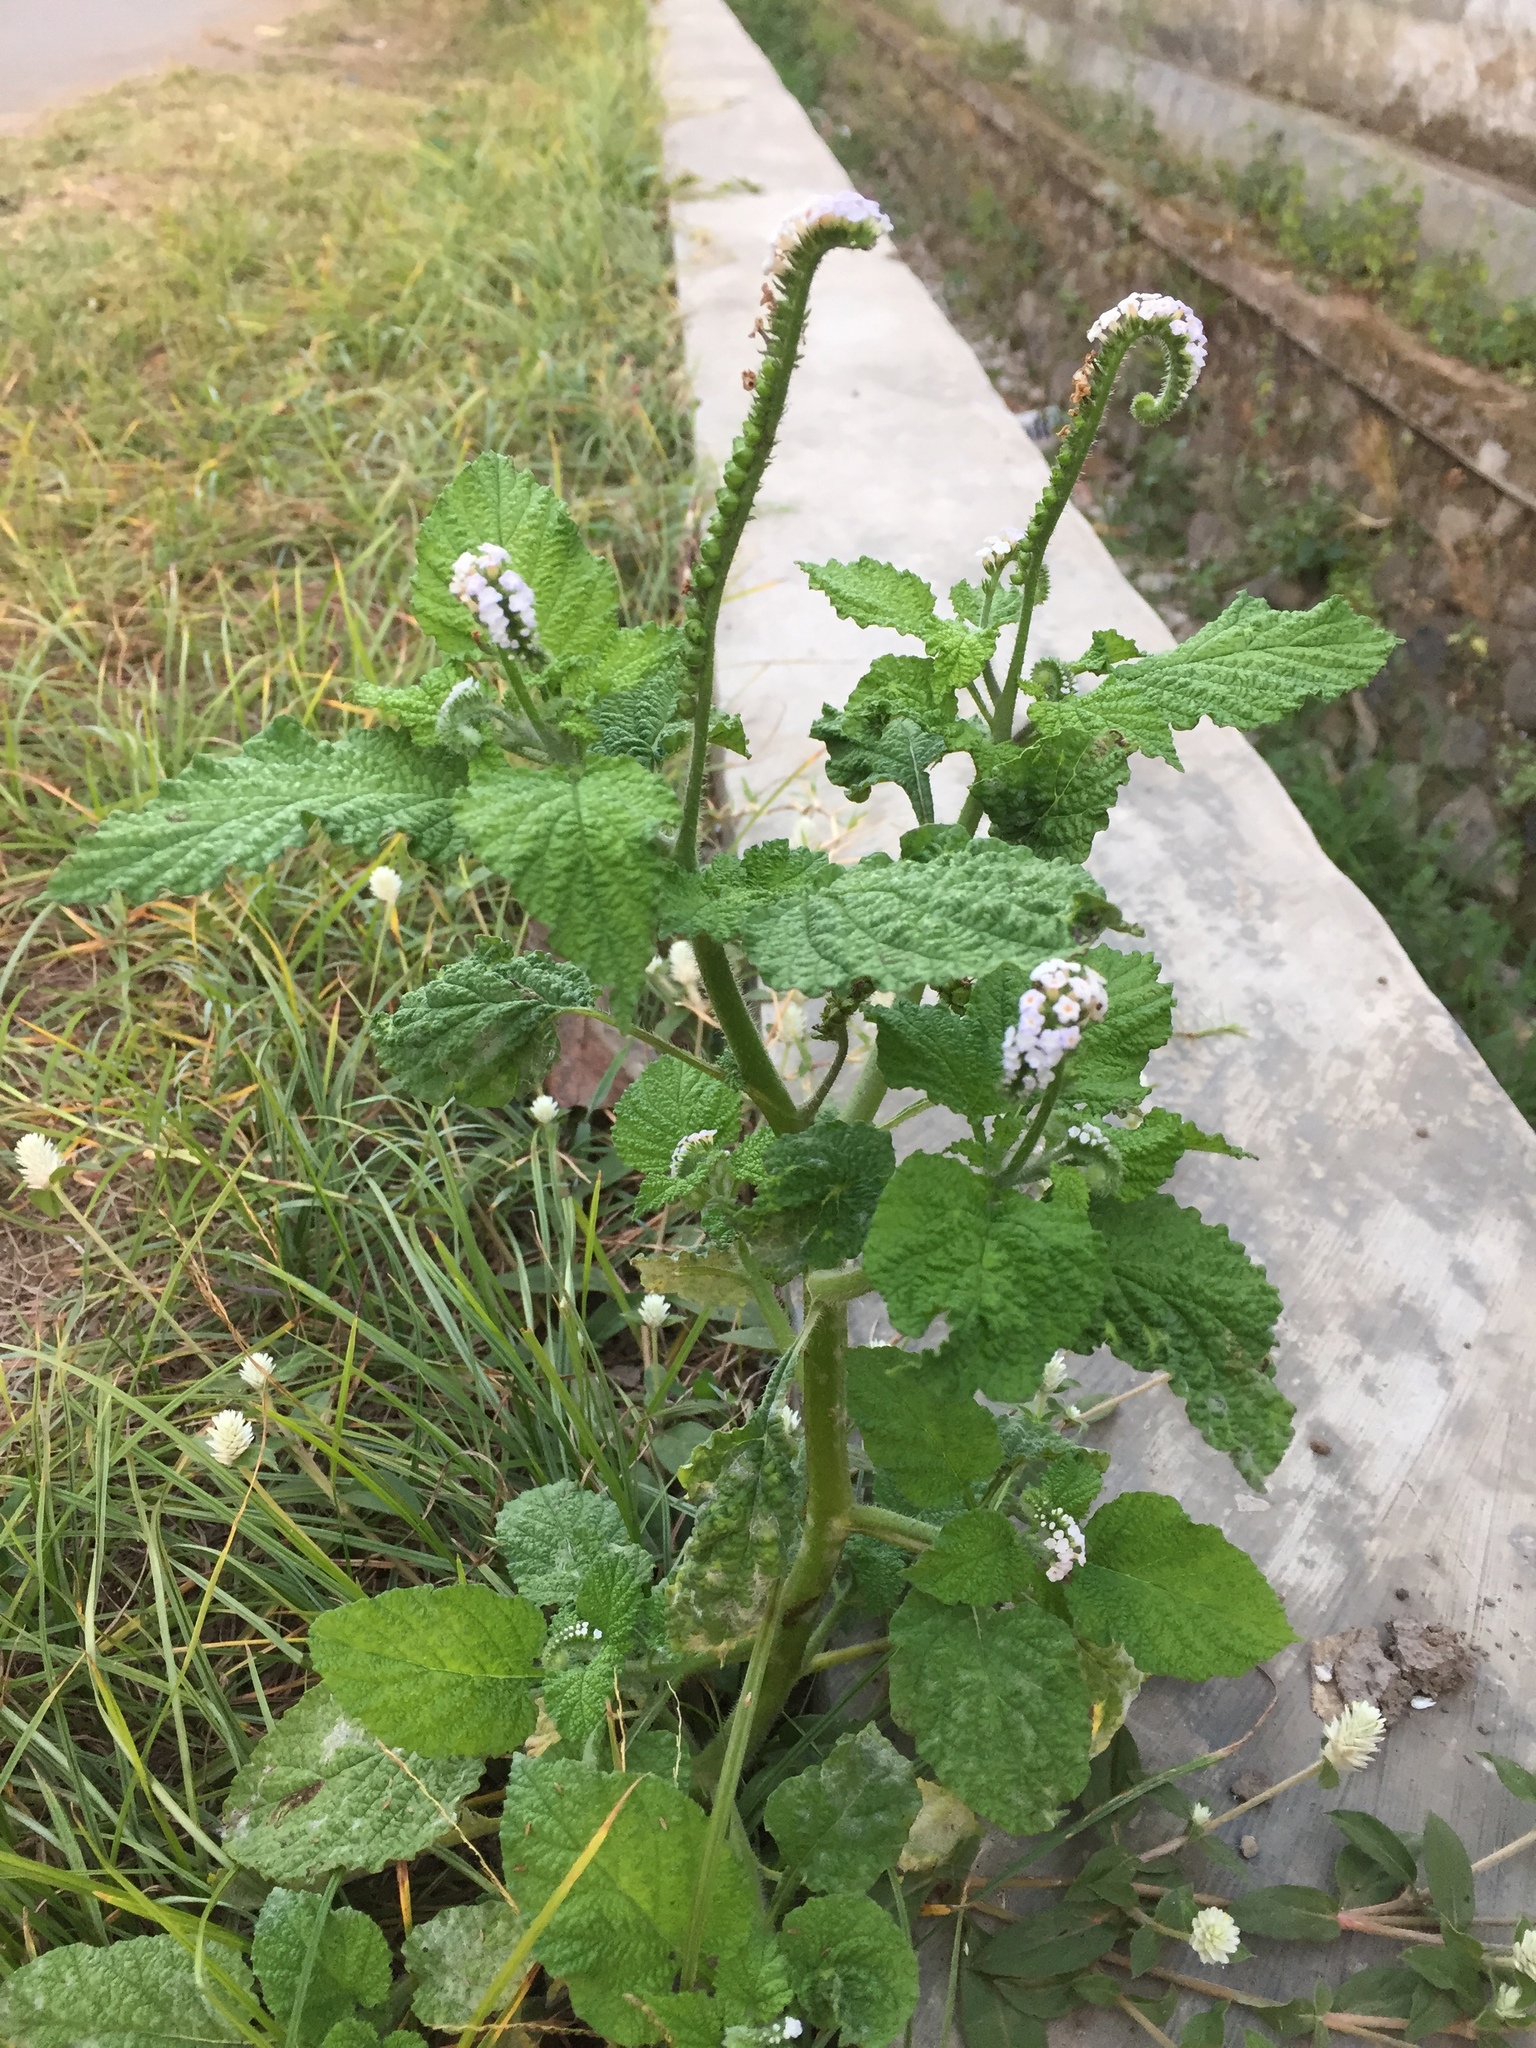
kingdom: Plantae
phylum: Tracheophyta
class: Magnoliopsida
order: Boraginales
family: Heliotropiaceae
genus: Heliotropium
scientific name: Heliotropium indicum
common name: Indian heliotrope
